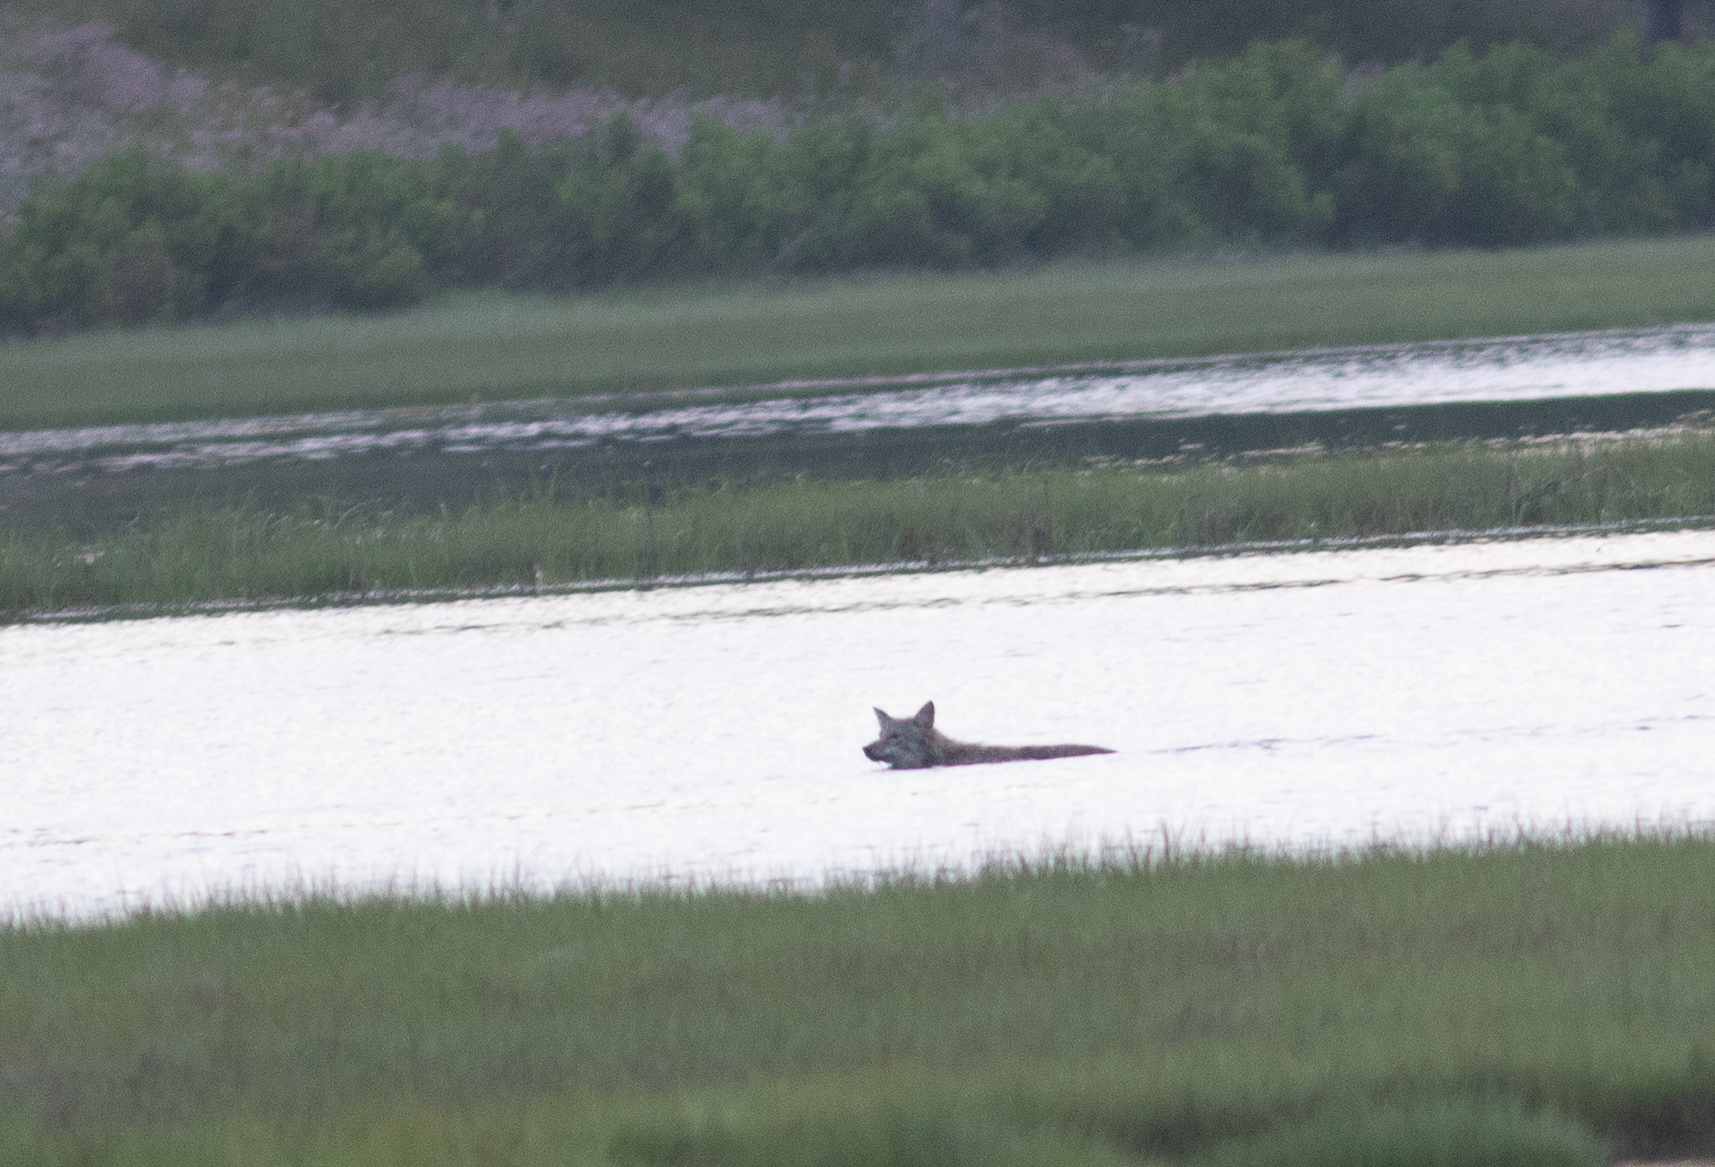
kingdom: Animalia
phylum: Chordata
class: Mammalia
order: Carnivora
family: Canidae
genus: Canis
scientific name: Canis latrans
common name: Coyote
